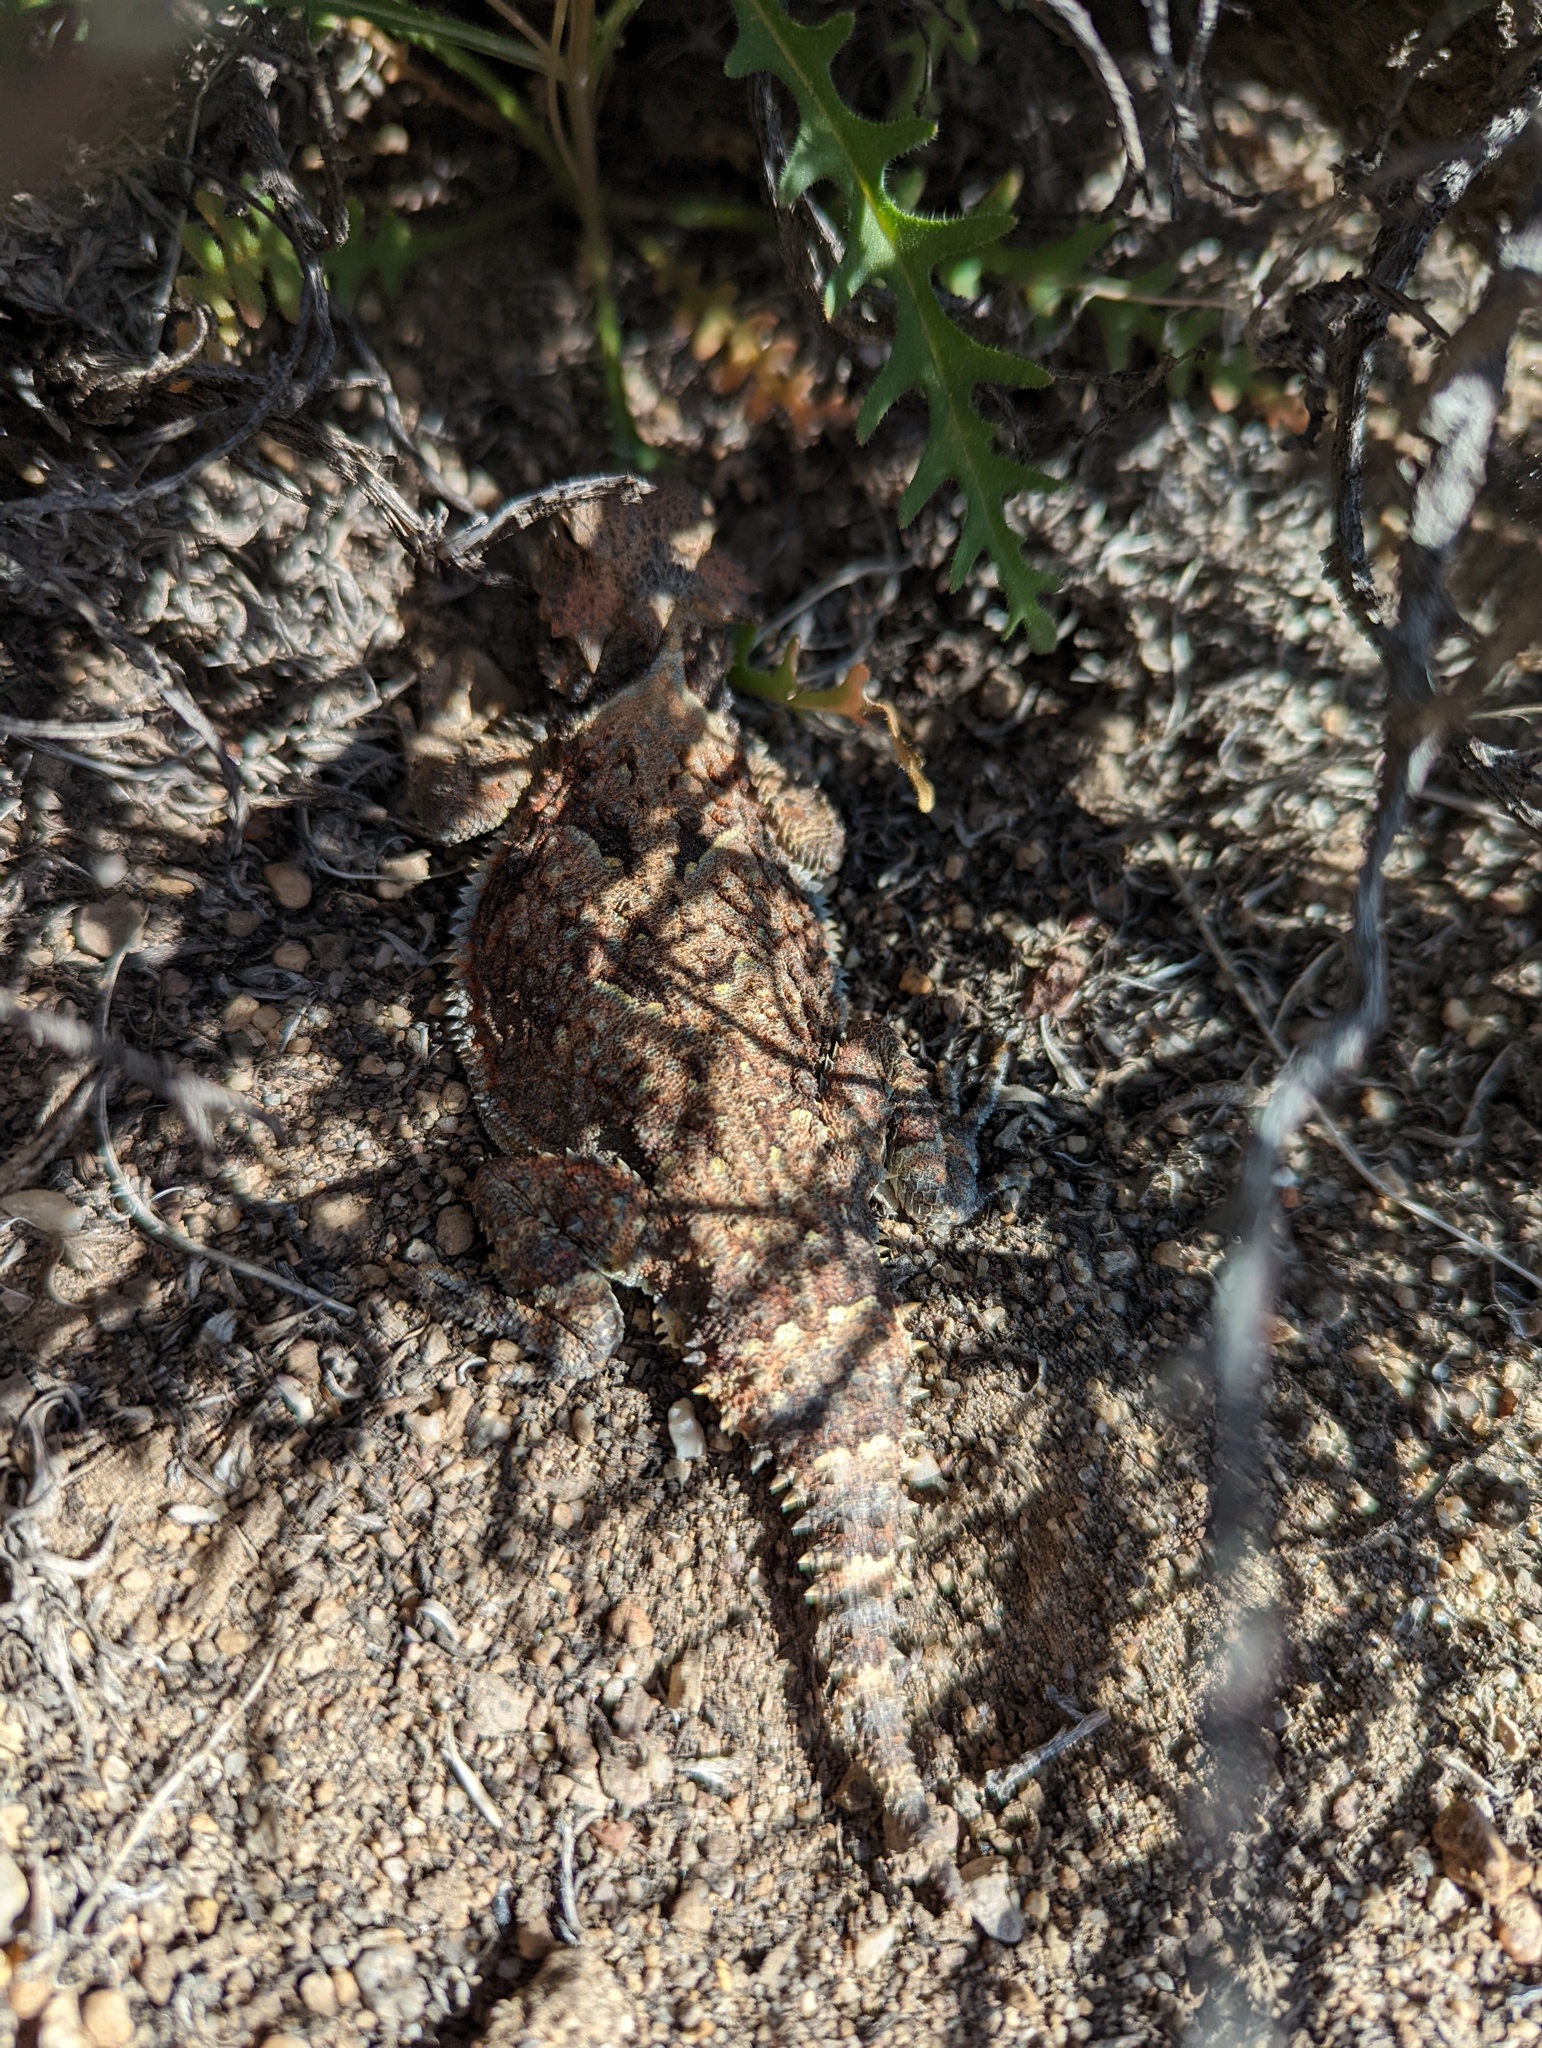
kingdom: Animalia
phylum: Chordata
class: Squamata
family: Phrynosomatidae
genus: Phrynosoma
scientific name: Phrynosoma platyrhinos
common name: Desert horned lizard
